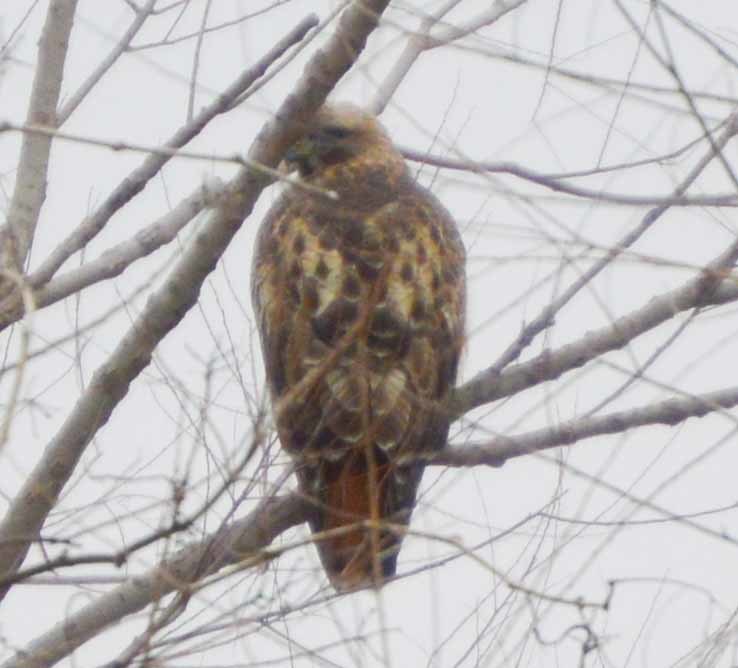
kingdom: Animalia
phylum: Chordata
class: Aves
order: Accipitriformes
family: Accipitridae
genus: Buteo
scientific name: Buteo jamaicensis
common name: Red-tailed hawk
